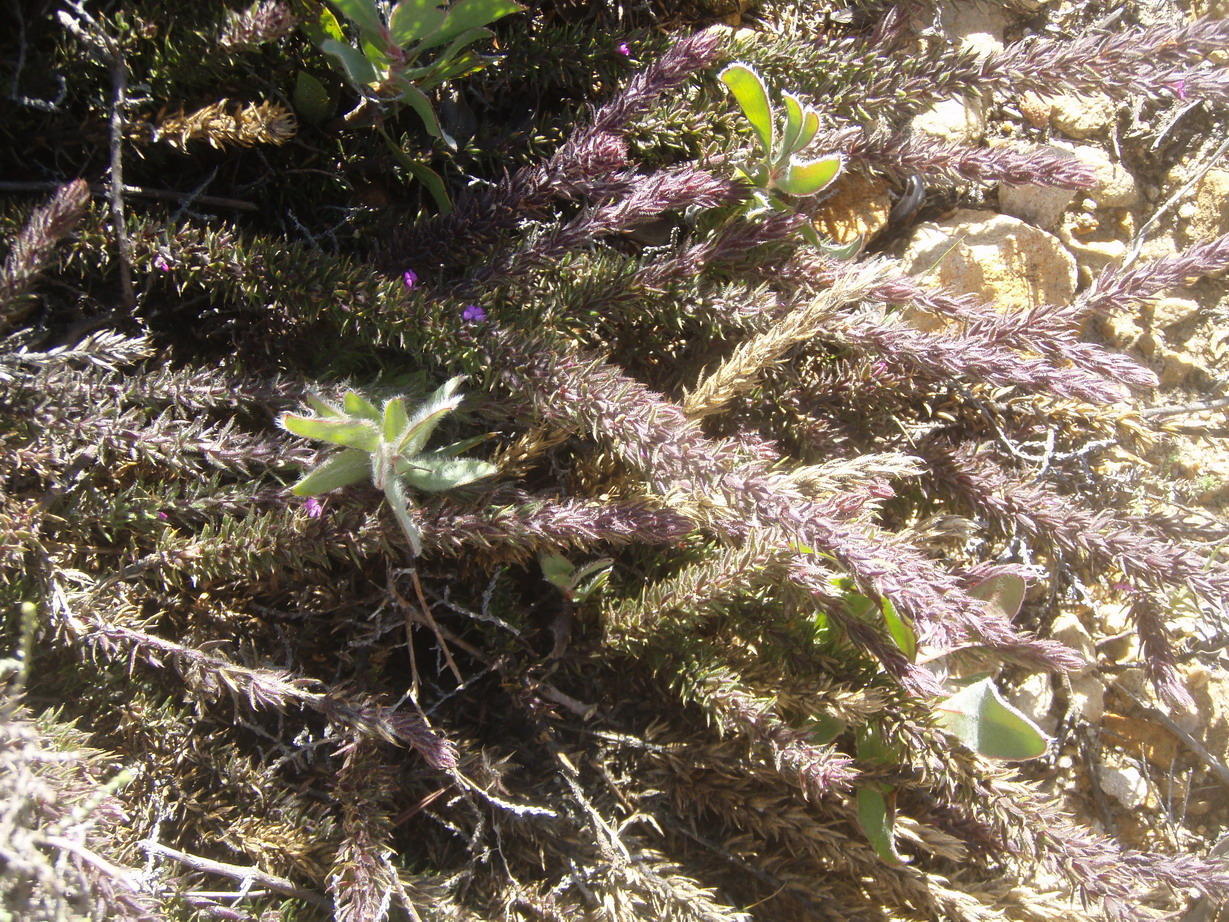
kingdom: Plantae
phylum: Tracheophyta
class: Magnoliopsida
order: Fabales
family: Polygalaceae
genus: Muraltia
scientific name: Muraltia squarrosa
